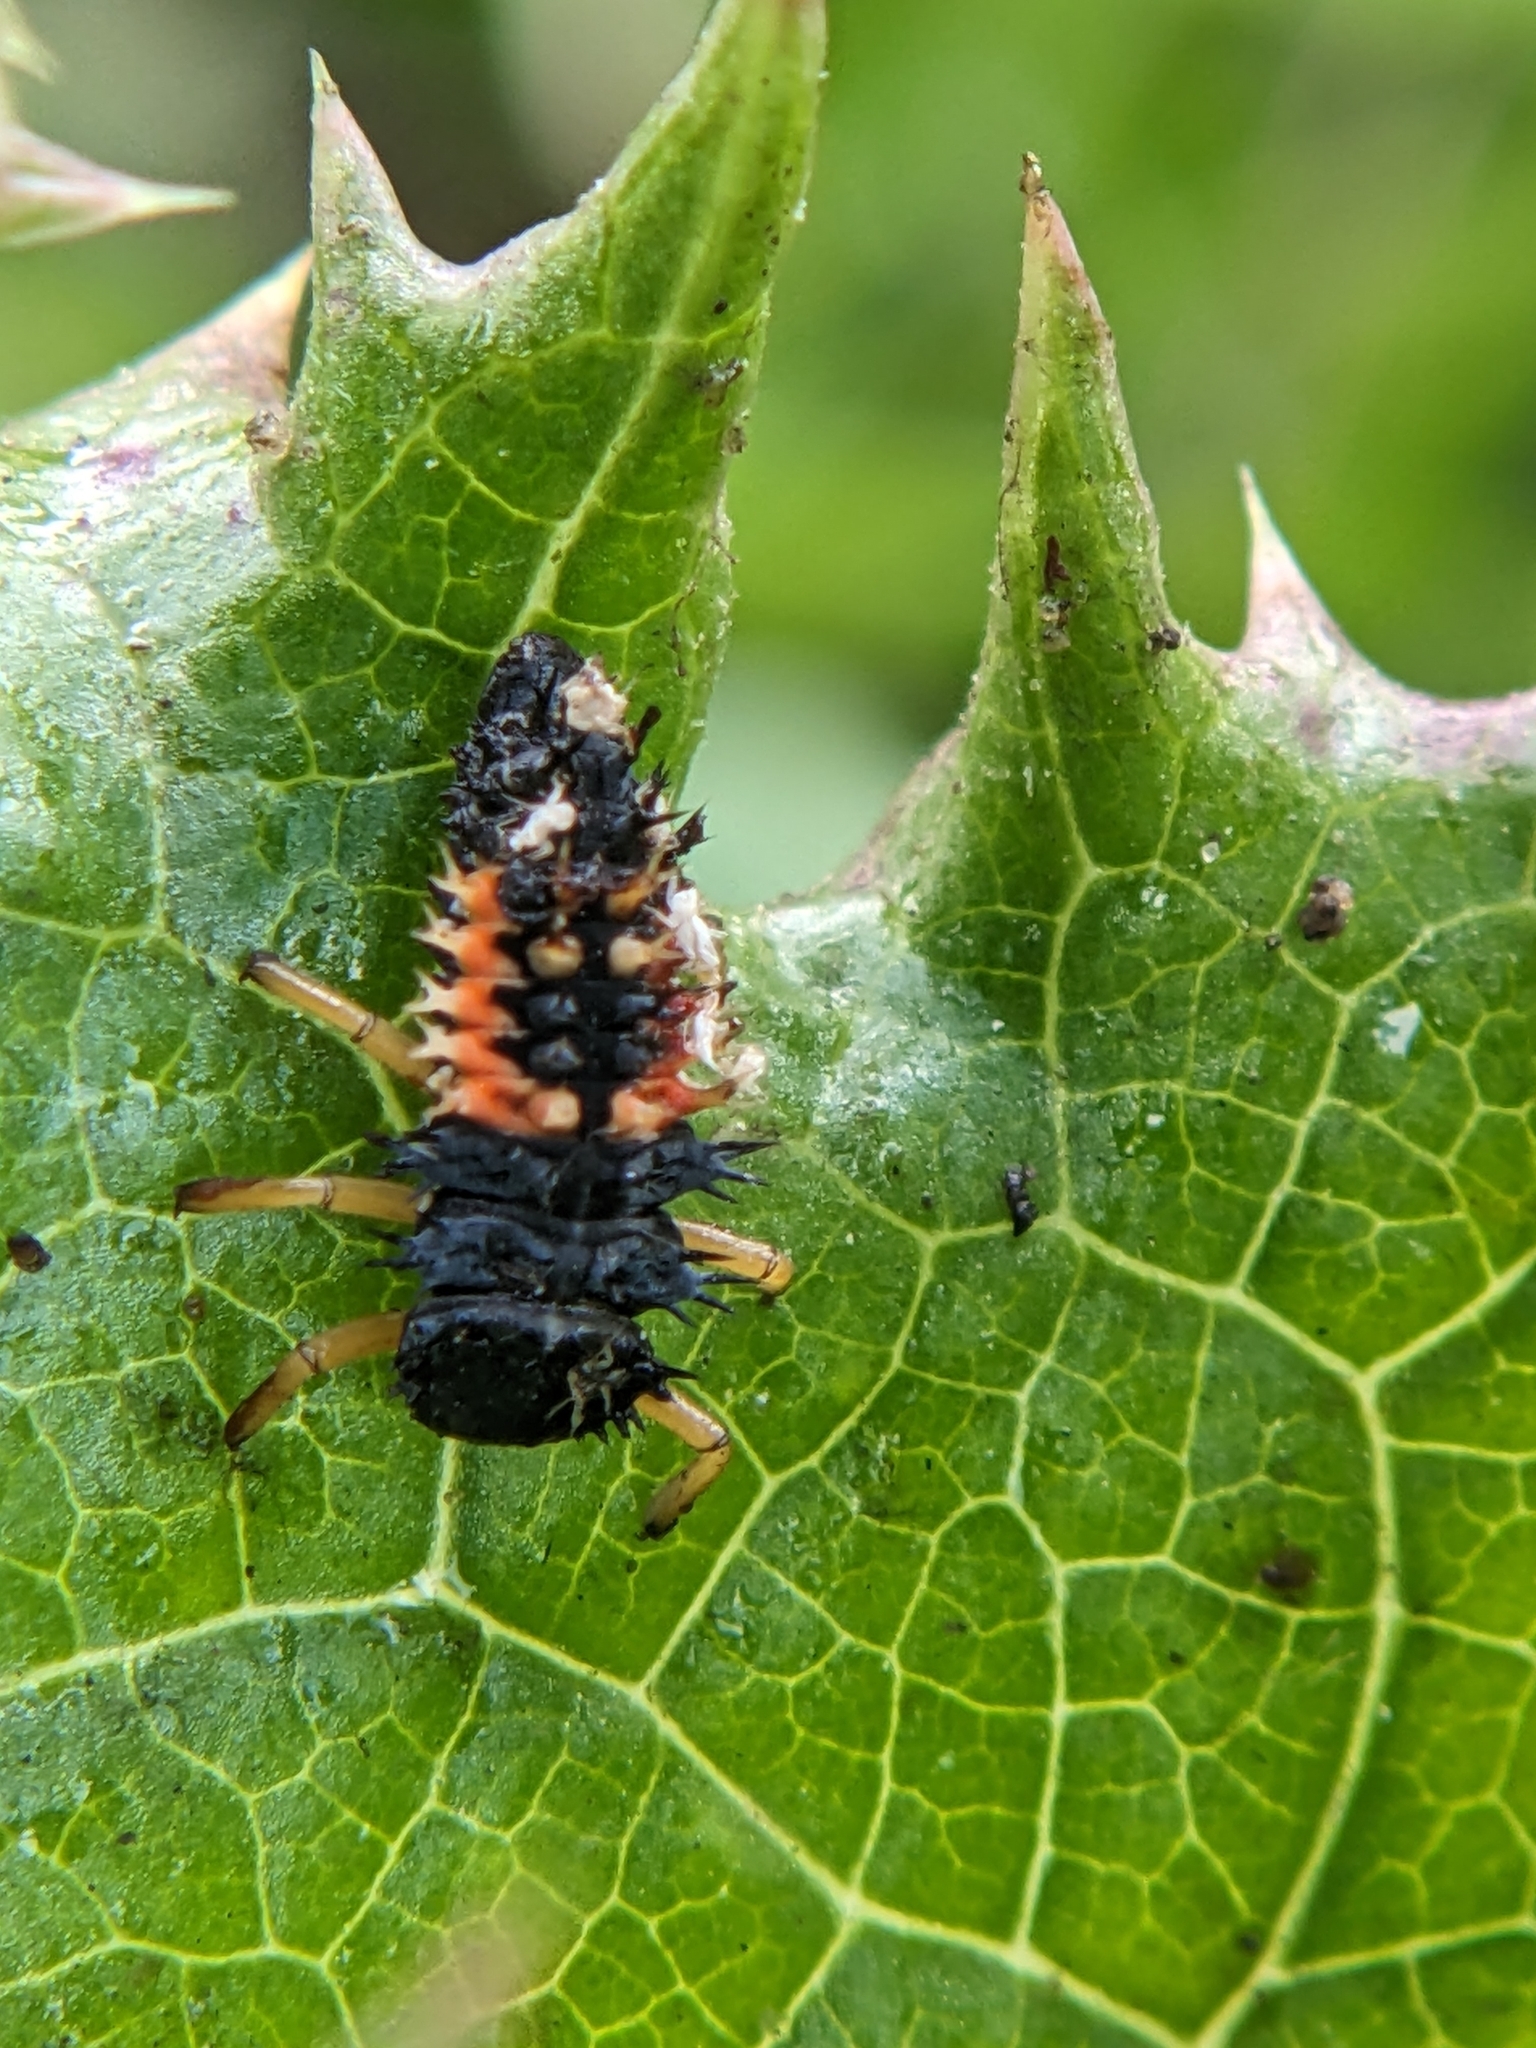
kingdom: Animalia
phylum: Arthropoda
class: Insecta
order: Coleoptera
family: Coccinellidae
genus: Harmonia
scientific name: Harmonia axyridis
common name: Harlequin ladybird
